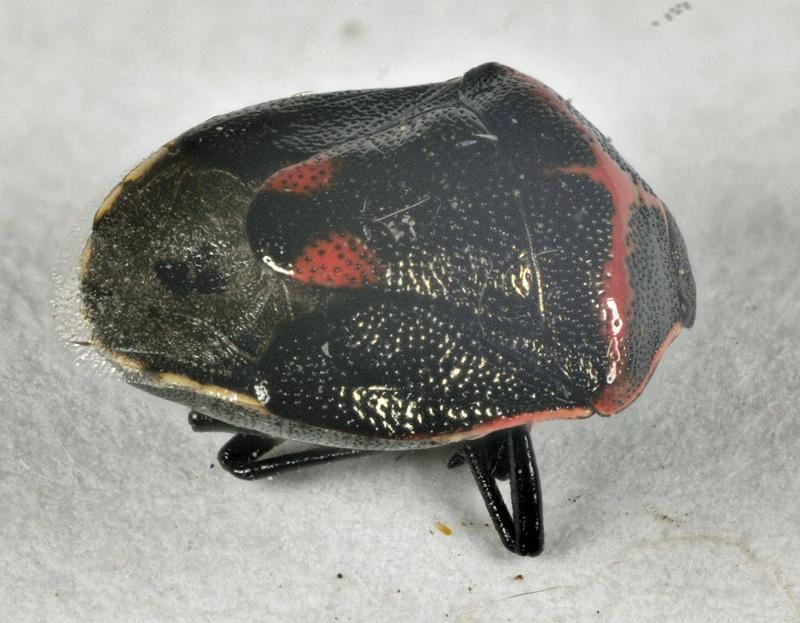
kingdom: Animalia
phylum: Arthropoda
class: Insecta
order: Hemiptera
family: Pentatomidae
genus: Cosmopepla
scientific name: Cosmopepla lintneriana
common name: Twice-stabbed stink bug
